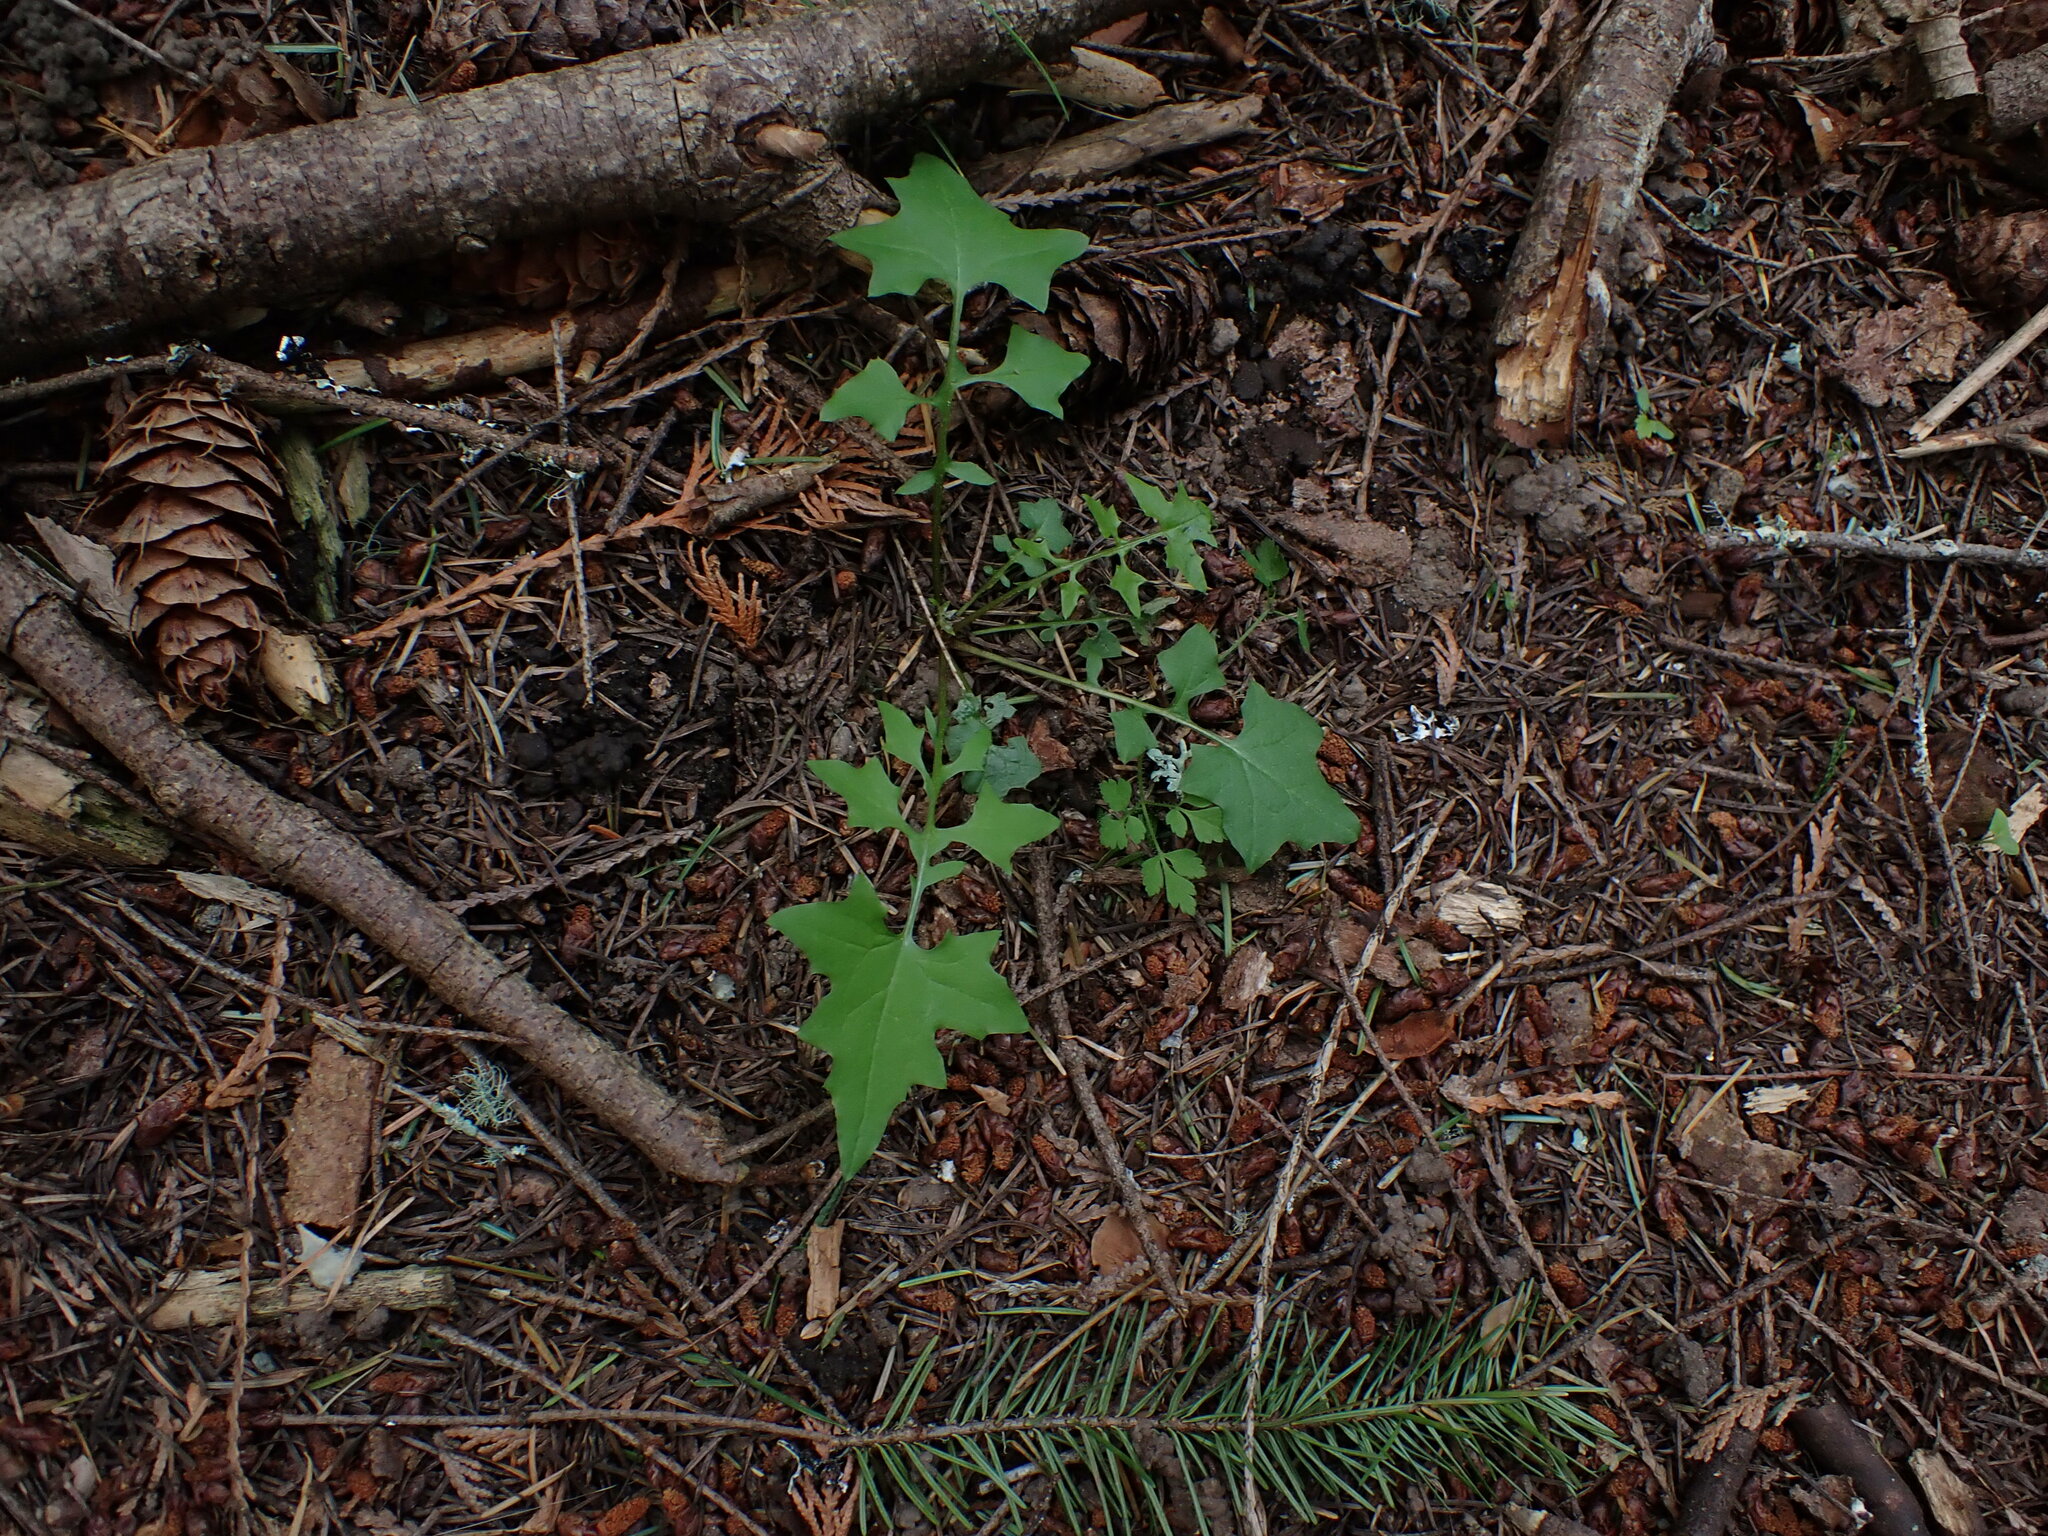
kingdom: Plantae
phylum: Tracheophyta
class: Magnoliopsida
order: Asterales
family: Asteraceae
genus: Mycelis
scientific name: Mycelis muralis
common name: Wall lettuce
